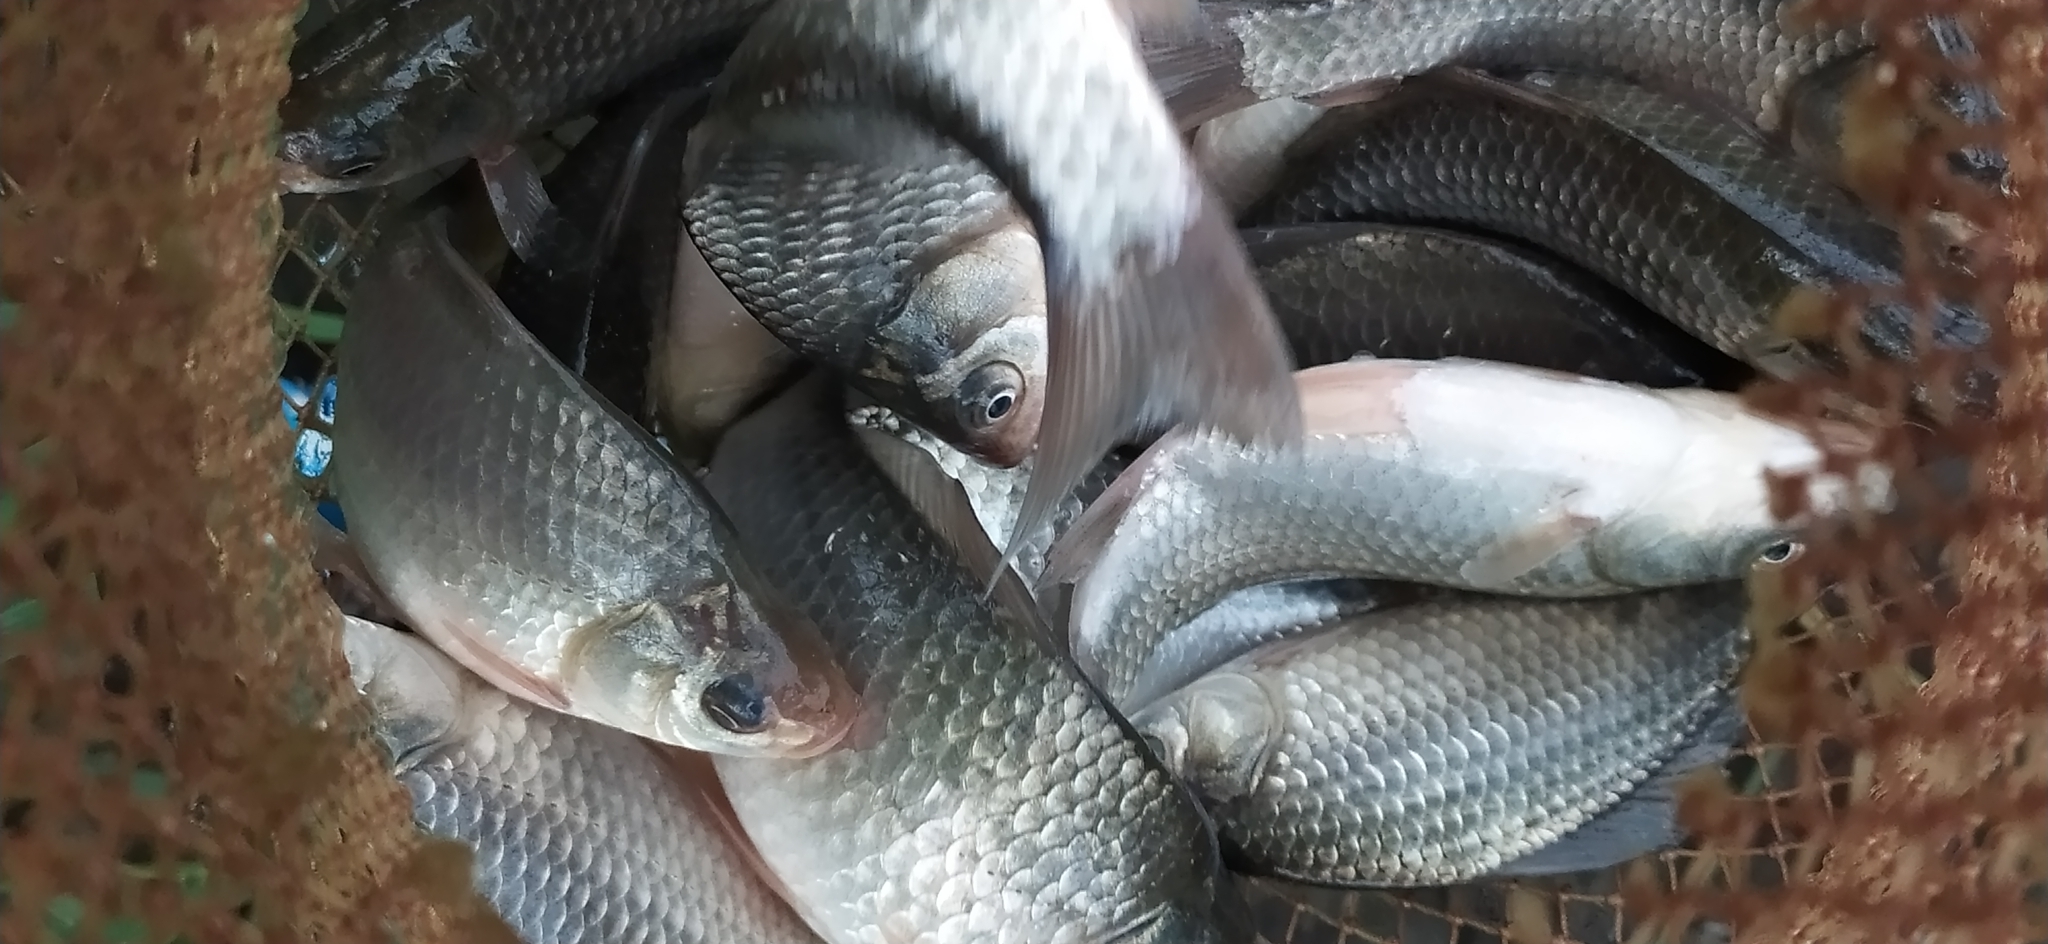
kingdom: Animalia
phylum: Chordata
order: Cypriniformes
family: Cyprinidae
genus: Carassius
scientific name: Carassius gibelio
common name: Prussian carp
